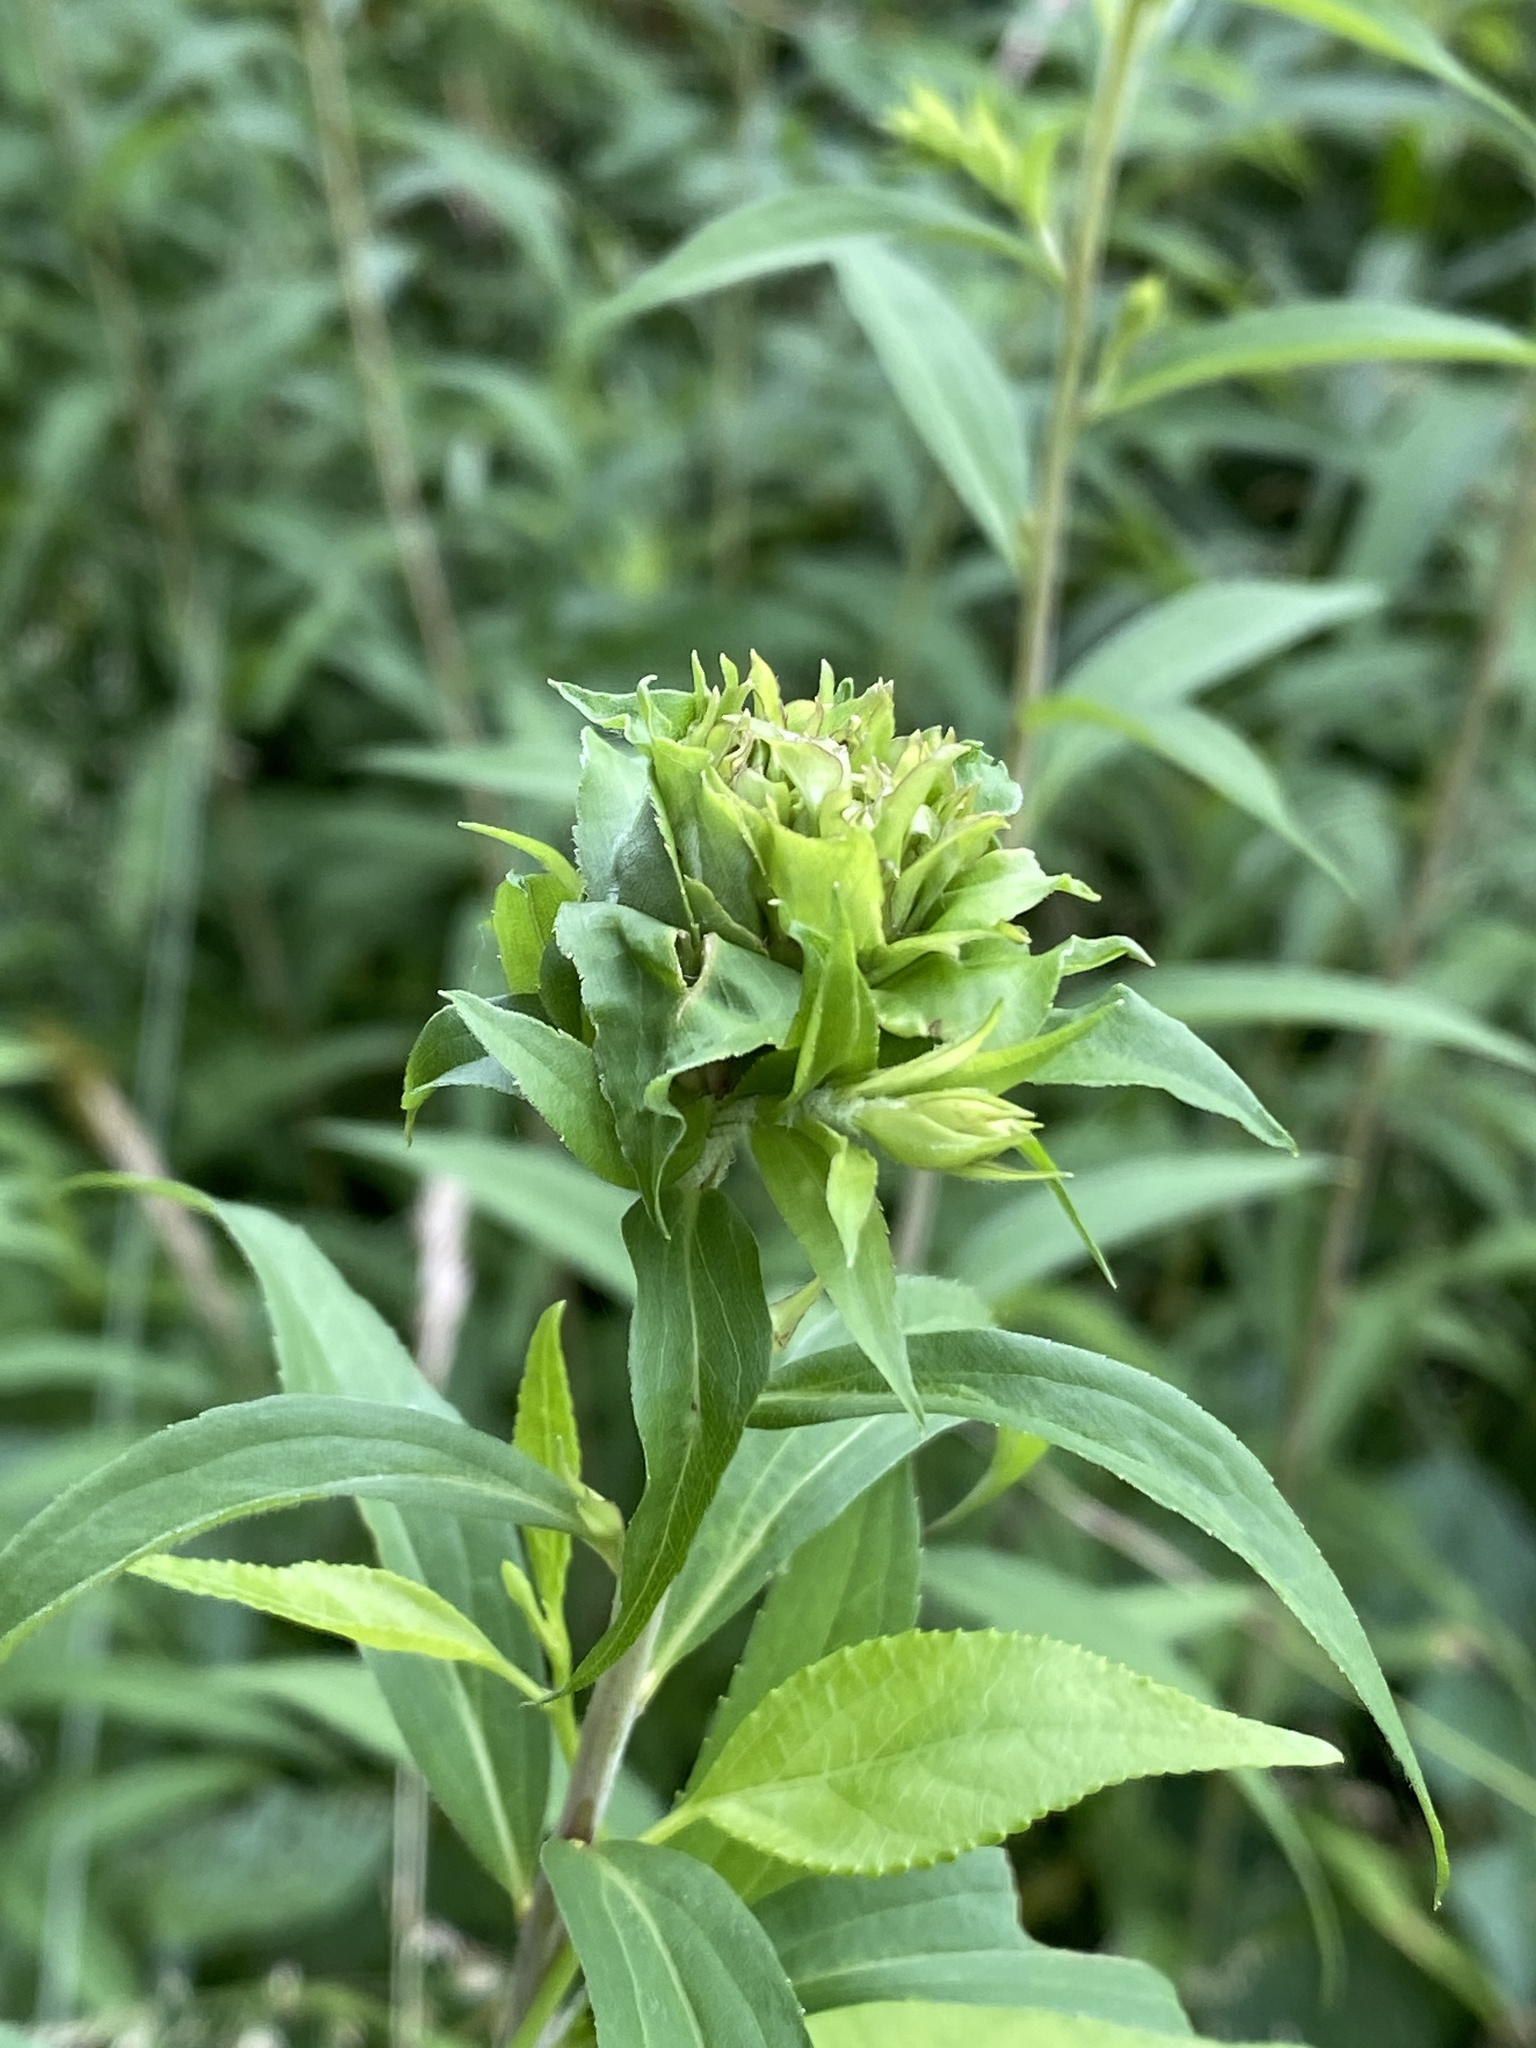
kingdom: Animalia
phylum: Arthropoda
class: Insecta
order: Diptera
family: Cecidomyiidae
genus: Rhopalomyia
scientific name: Rhopalomyia capitata
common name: Giant goldenrod bunch gall midge
